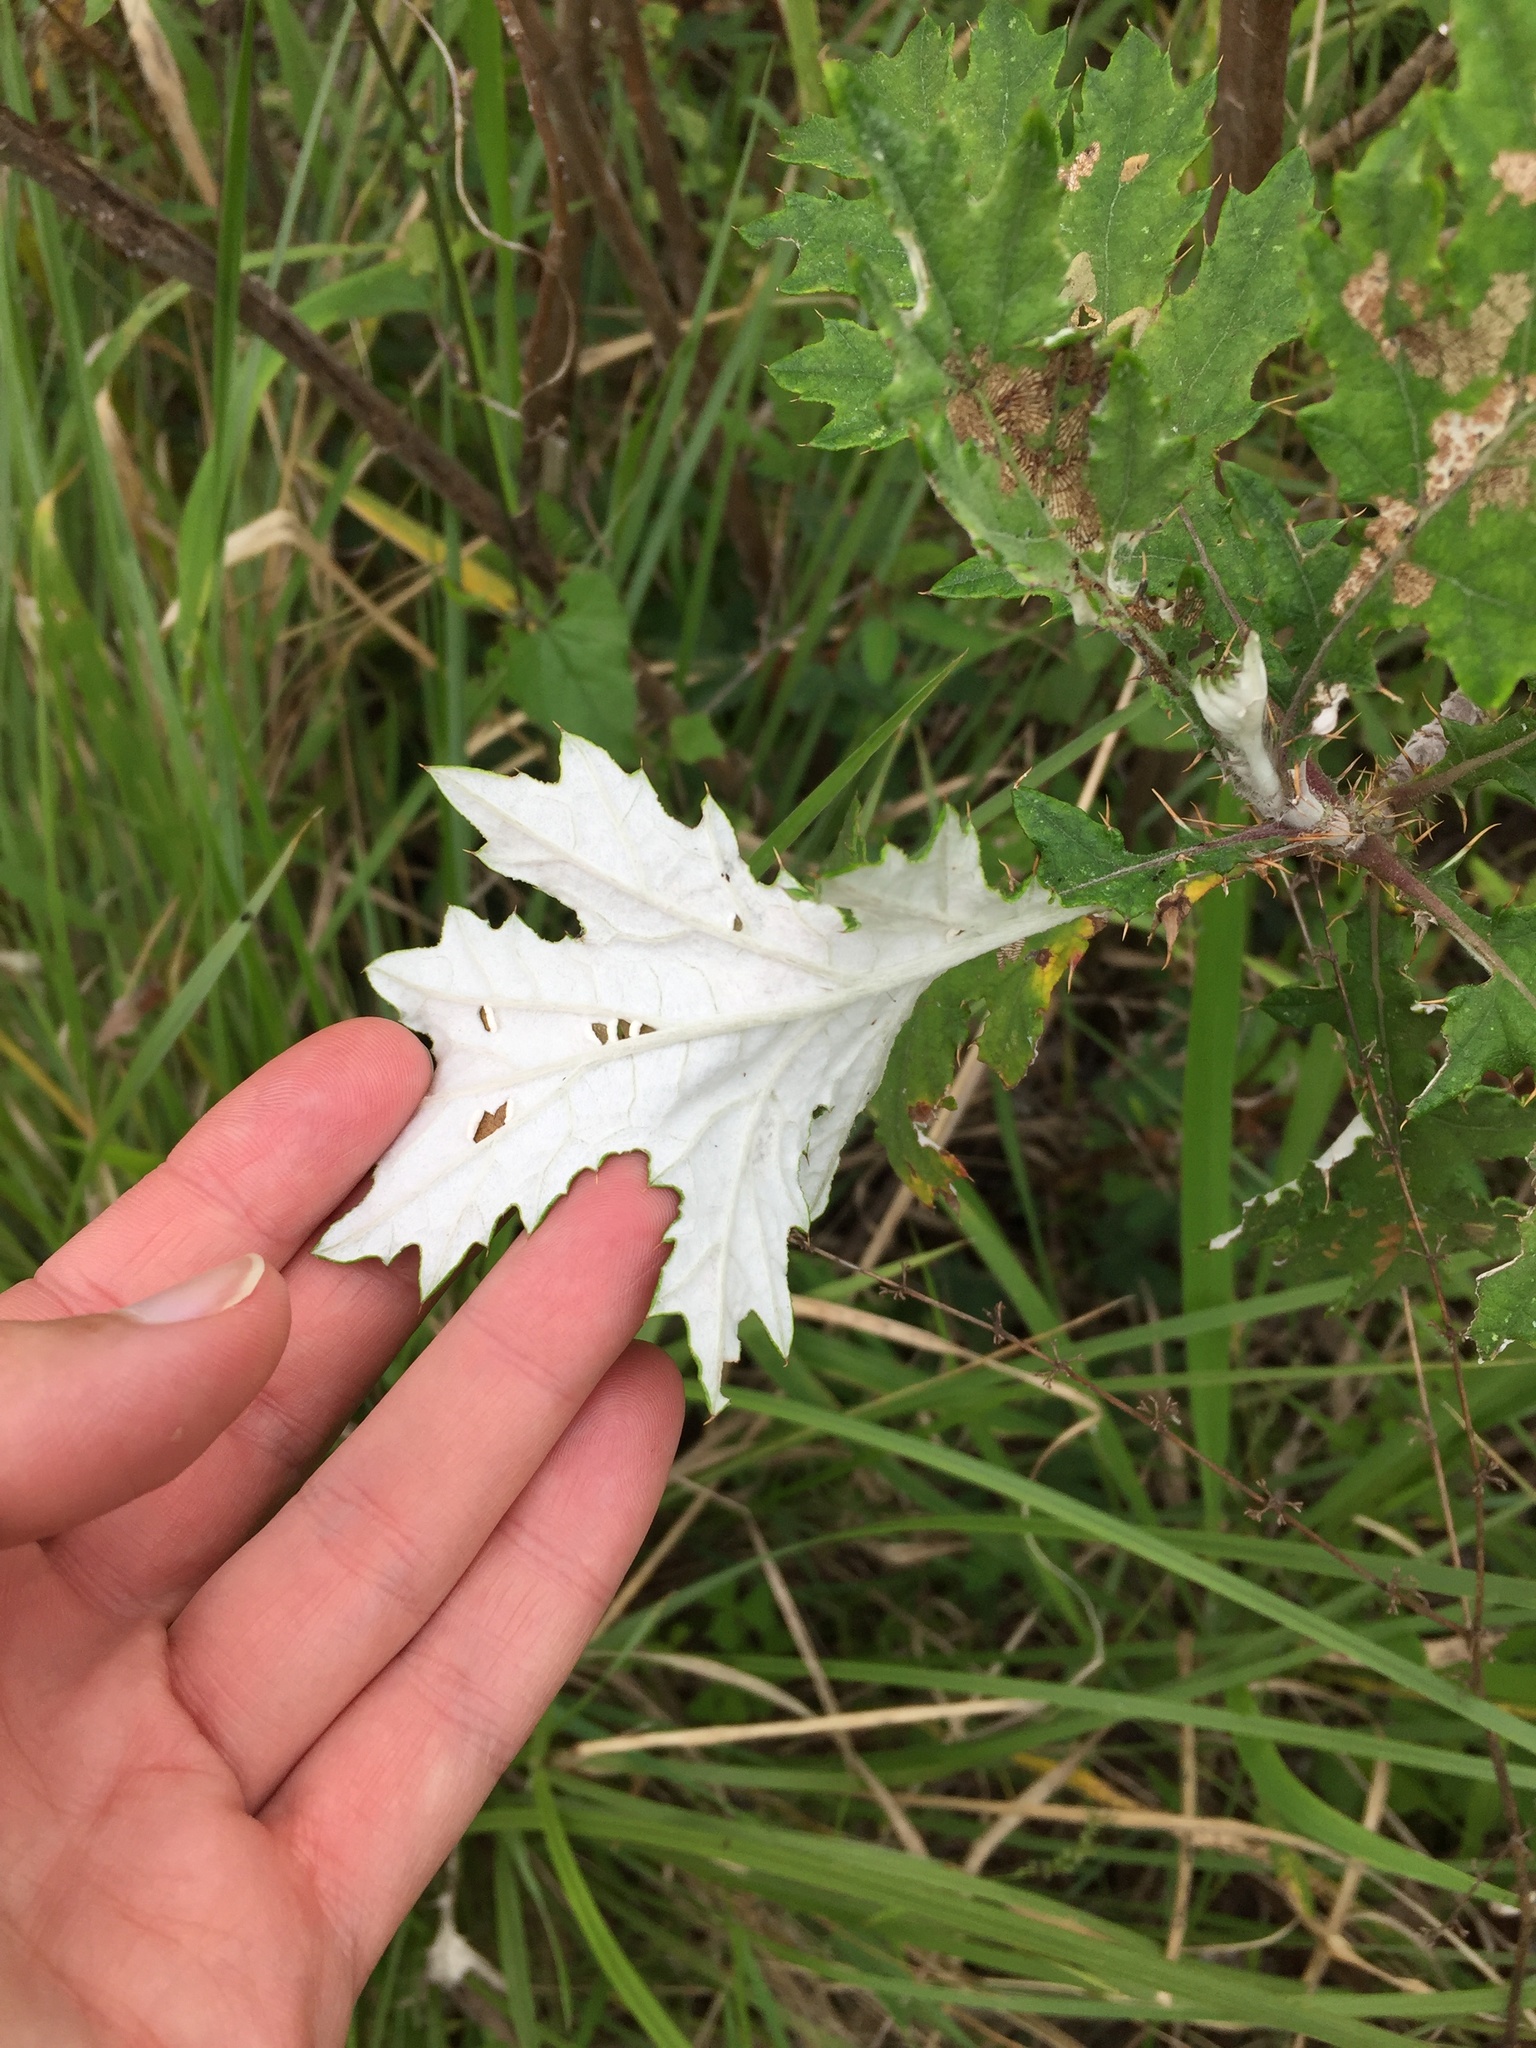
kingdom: Plantae
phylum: Tracheophyta
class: Magnoliopsida
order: Asterales
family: Asteraceae
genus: Berkheya
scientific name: Berkheya bipinnatifida
